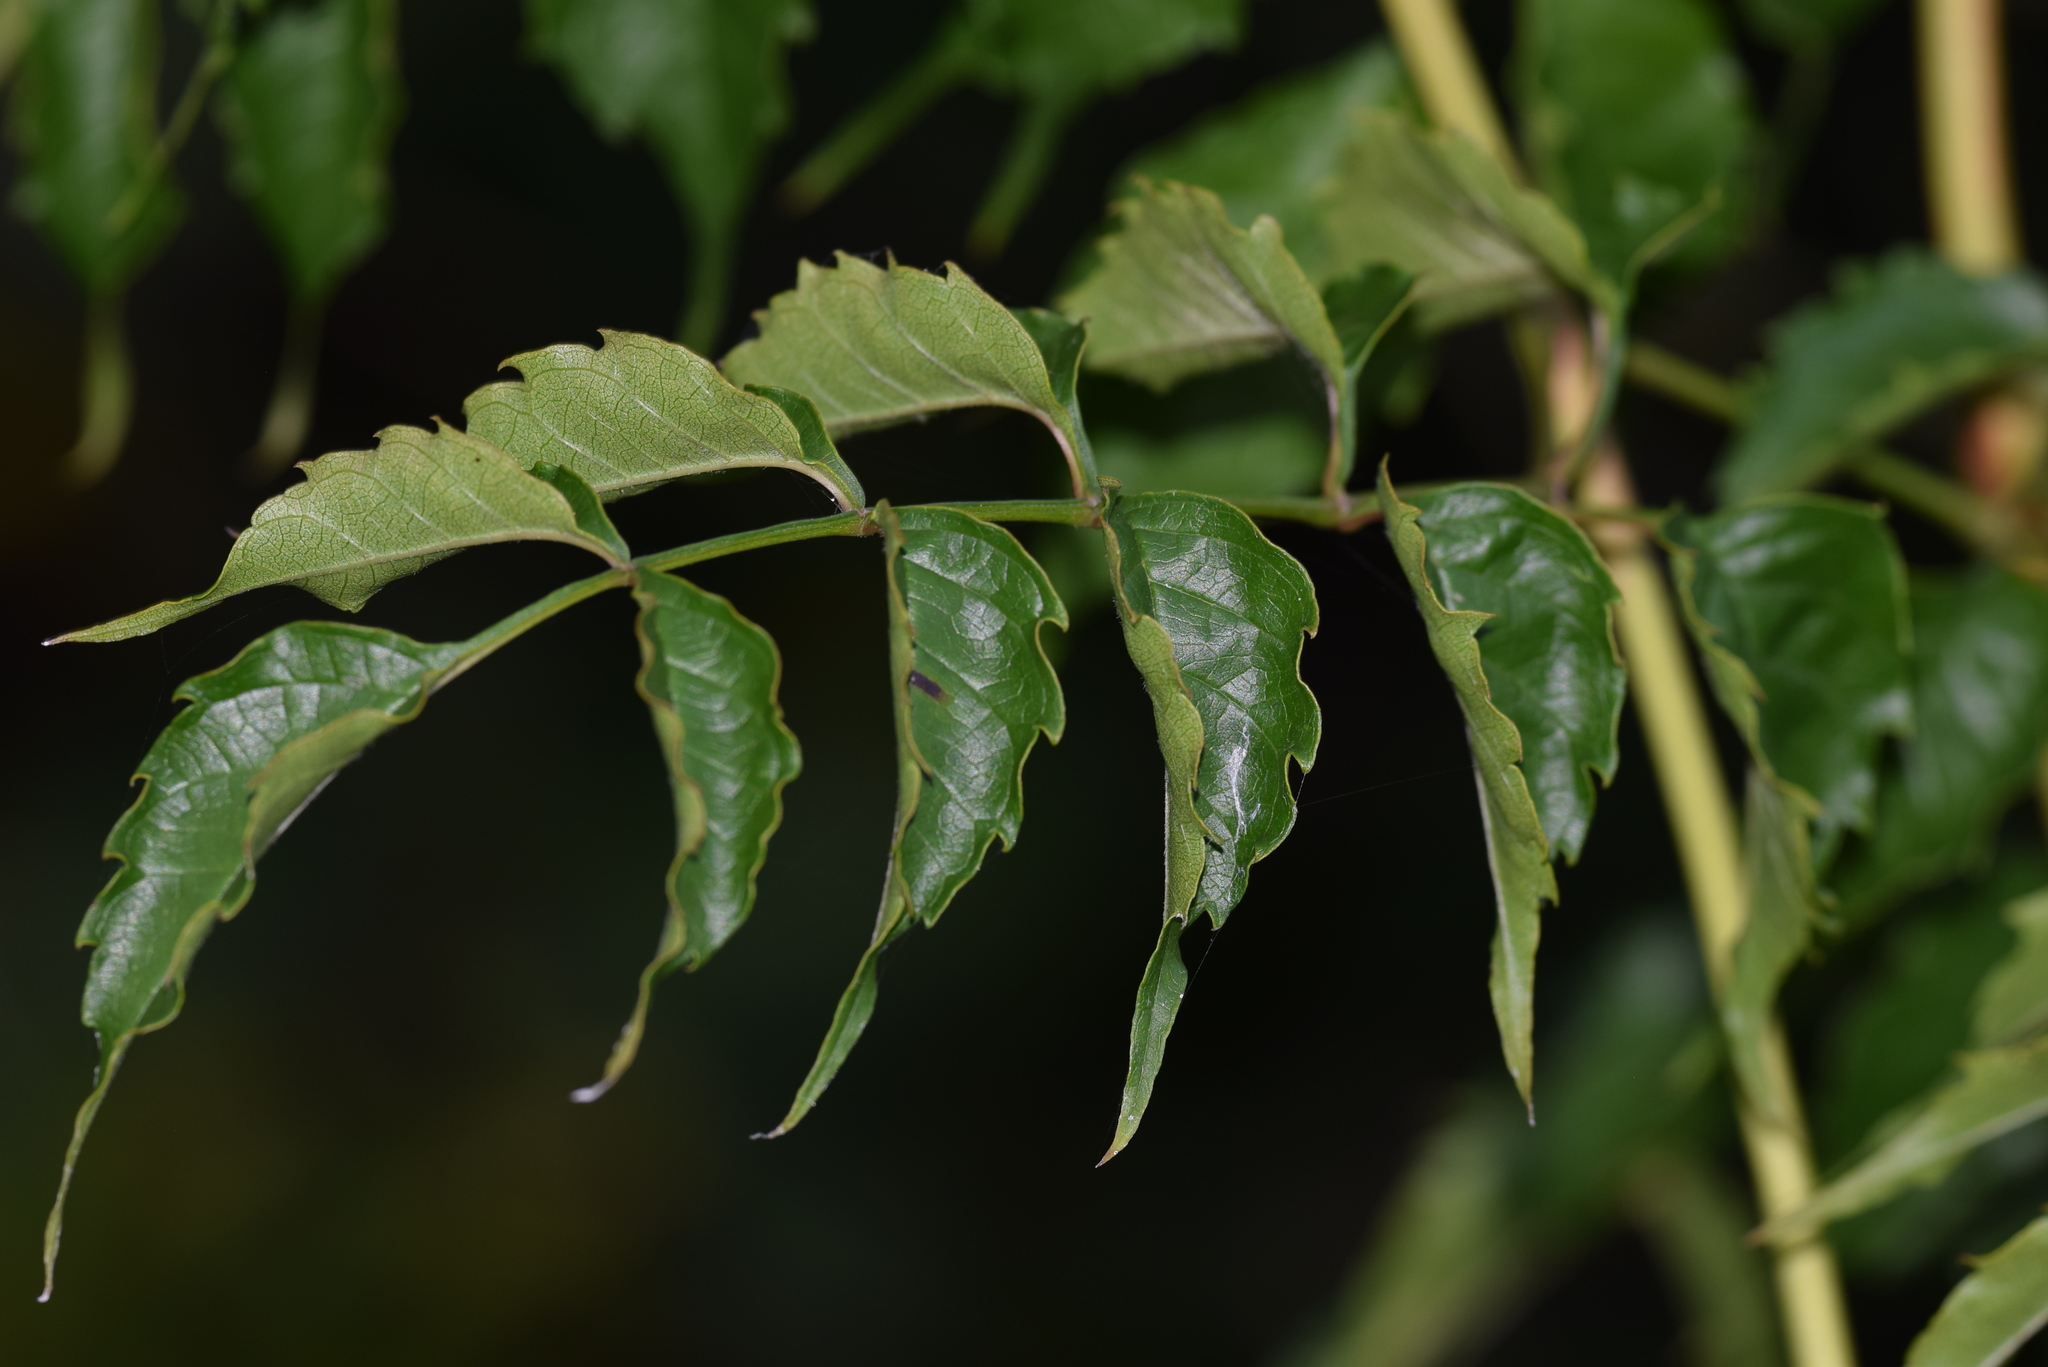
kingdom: Plantae
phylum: Tracheophyta
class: Magnoliopsida
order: Lamiales
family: Bignoniaceae
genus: Campsis
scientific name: Campsis radicans
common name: Trumpet-creeper
